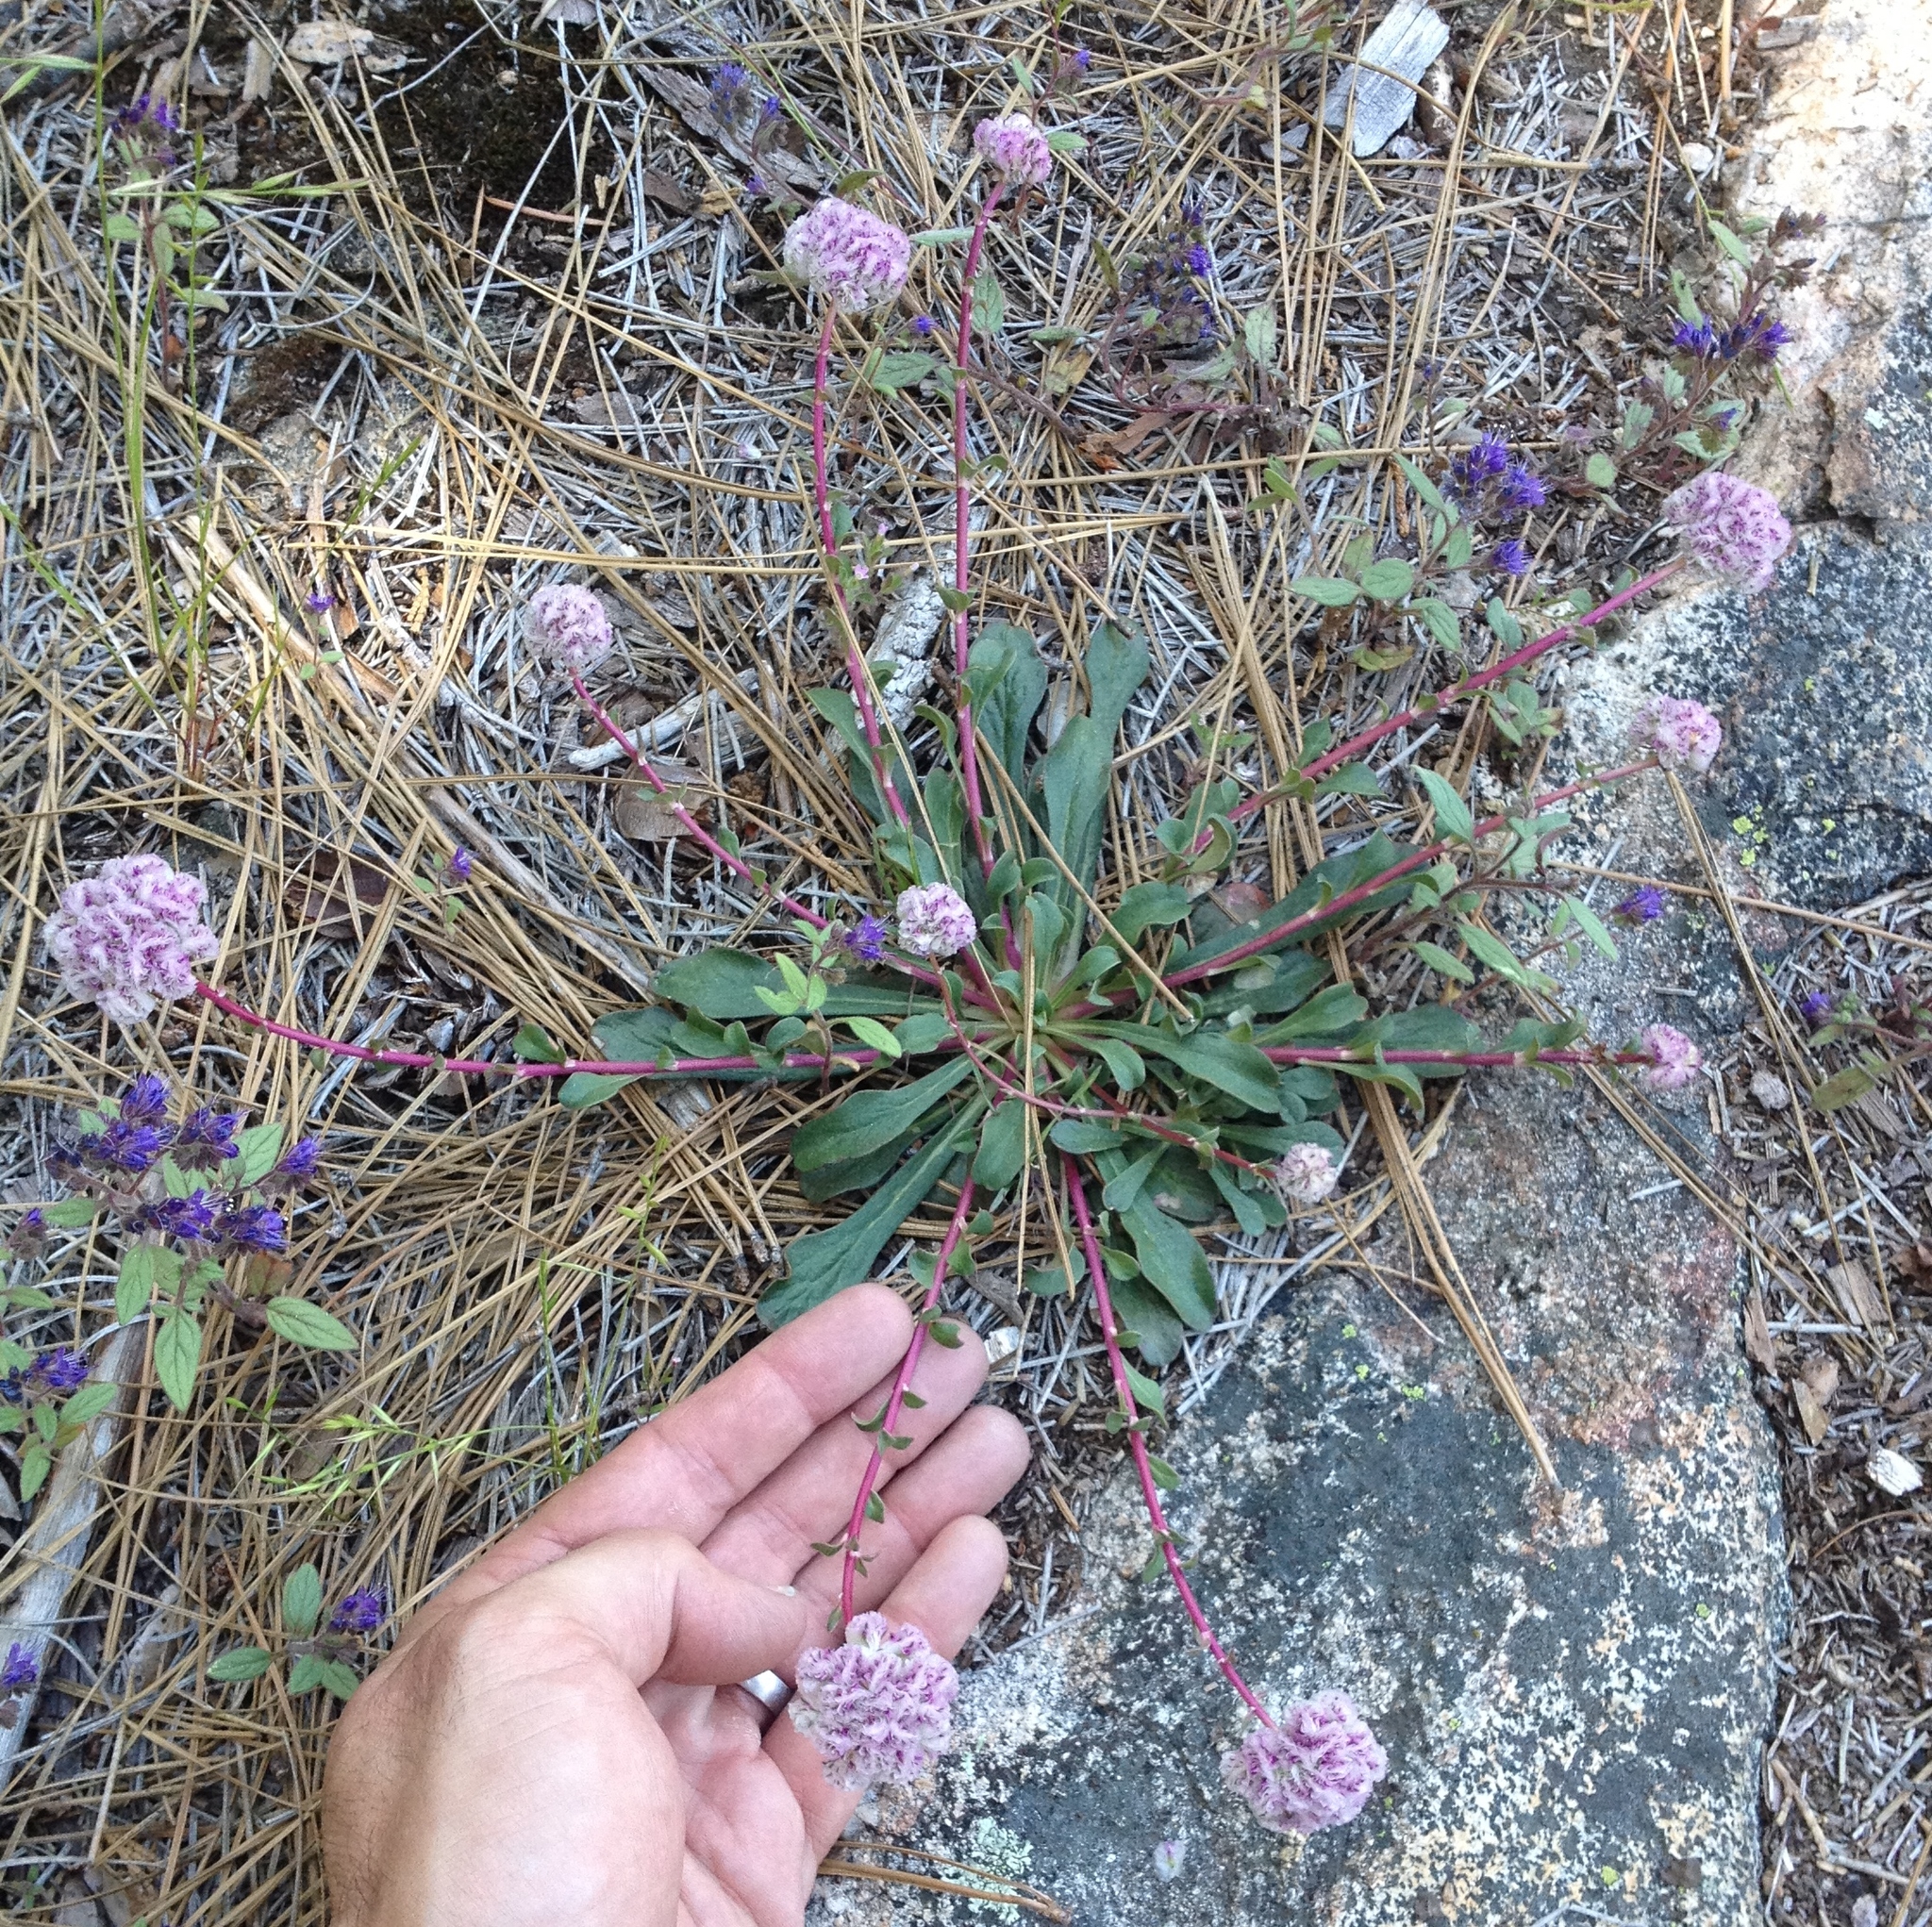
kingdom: Plantae
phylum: Tracheophyta
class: Magnoliopsida
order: Caryophyllales
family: Montiaceae
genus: Calyptridium
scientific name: Calyptridium monospermum
